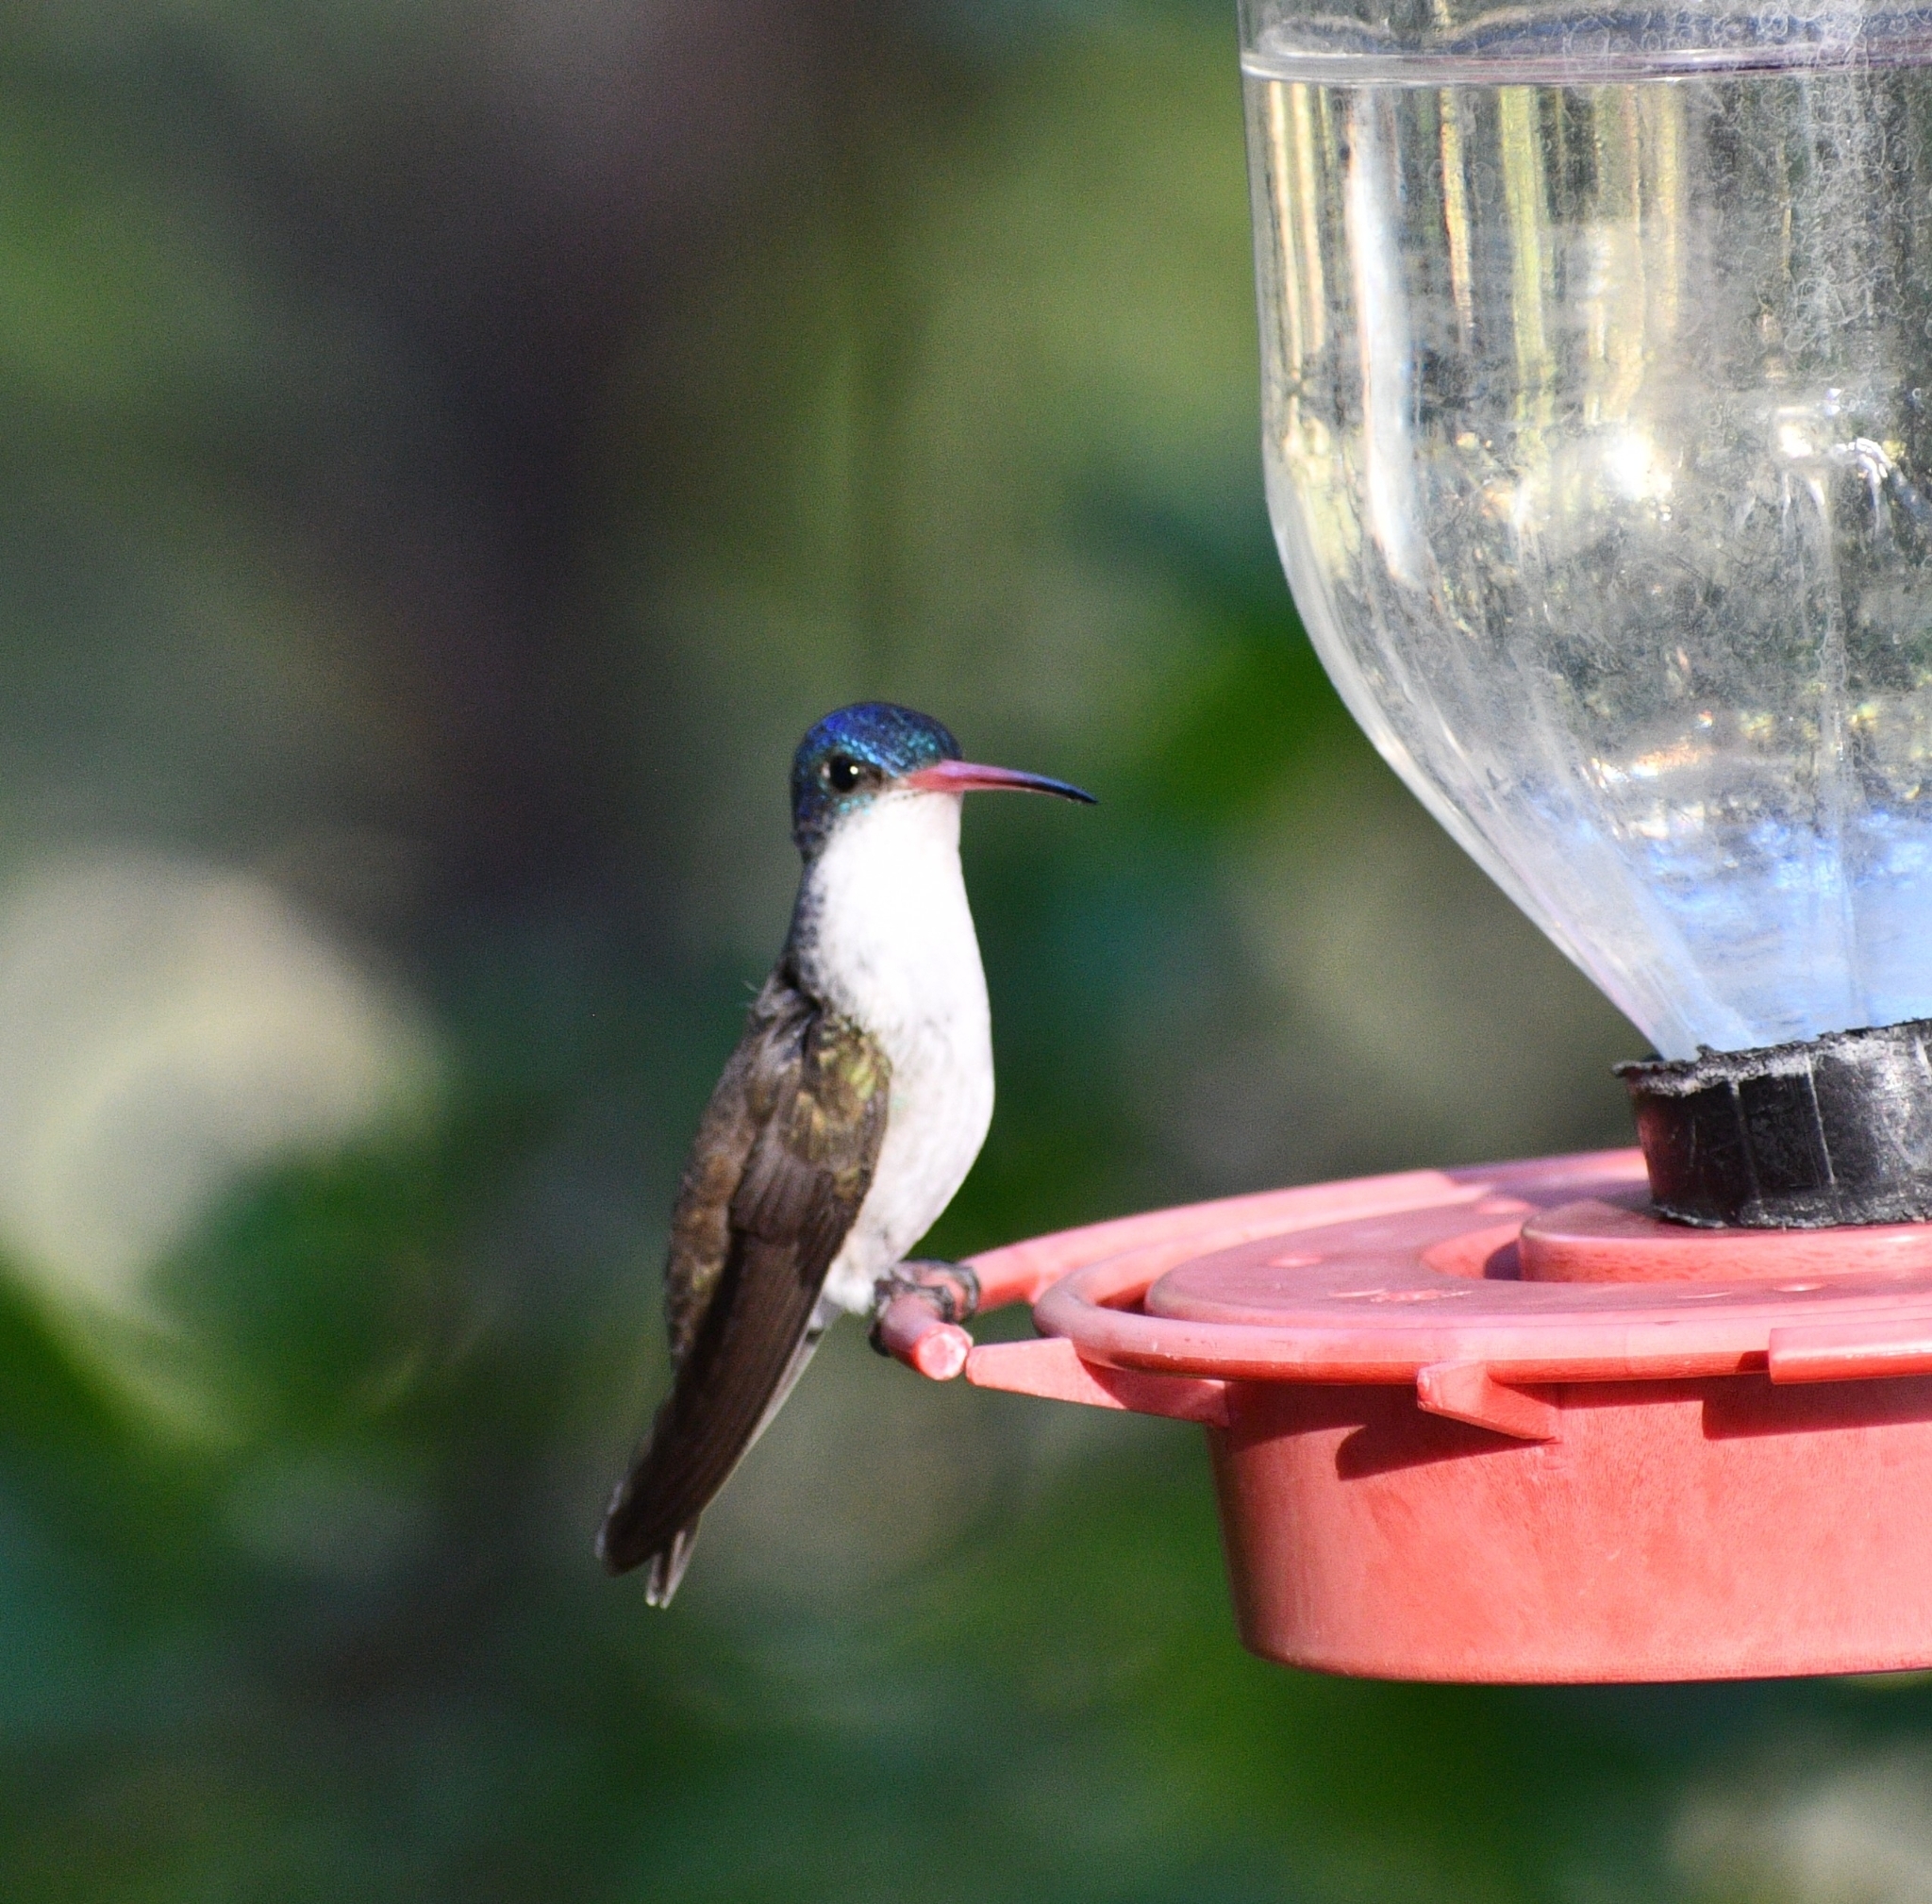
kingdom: Animalia
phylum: Chordata
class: Aves
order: Apodiformes
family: Trochilidae
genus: Leucolia
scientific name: Leucolia violiceps
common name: Violet-crowned hummingbird
